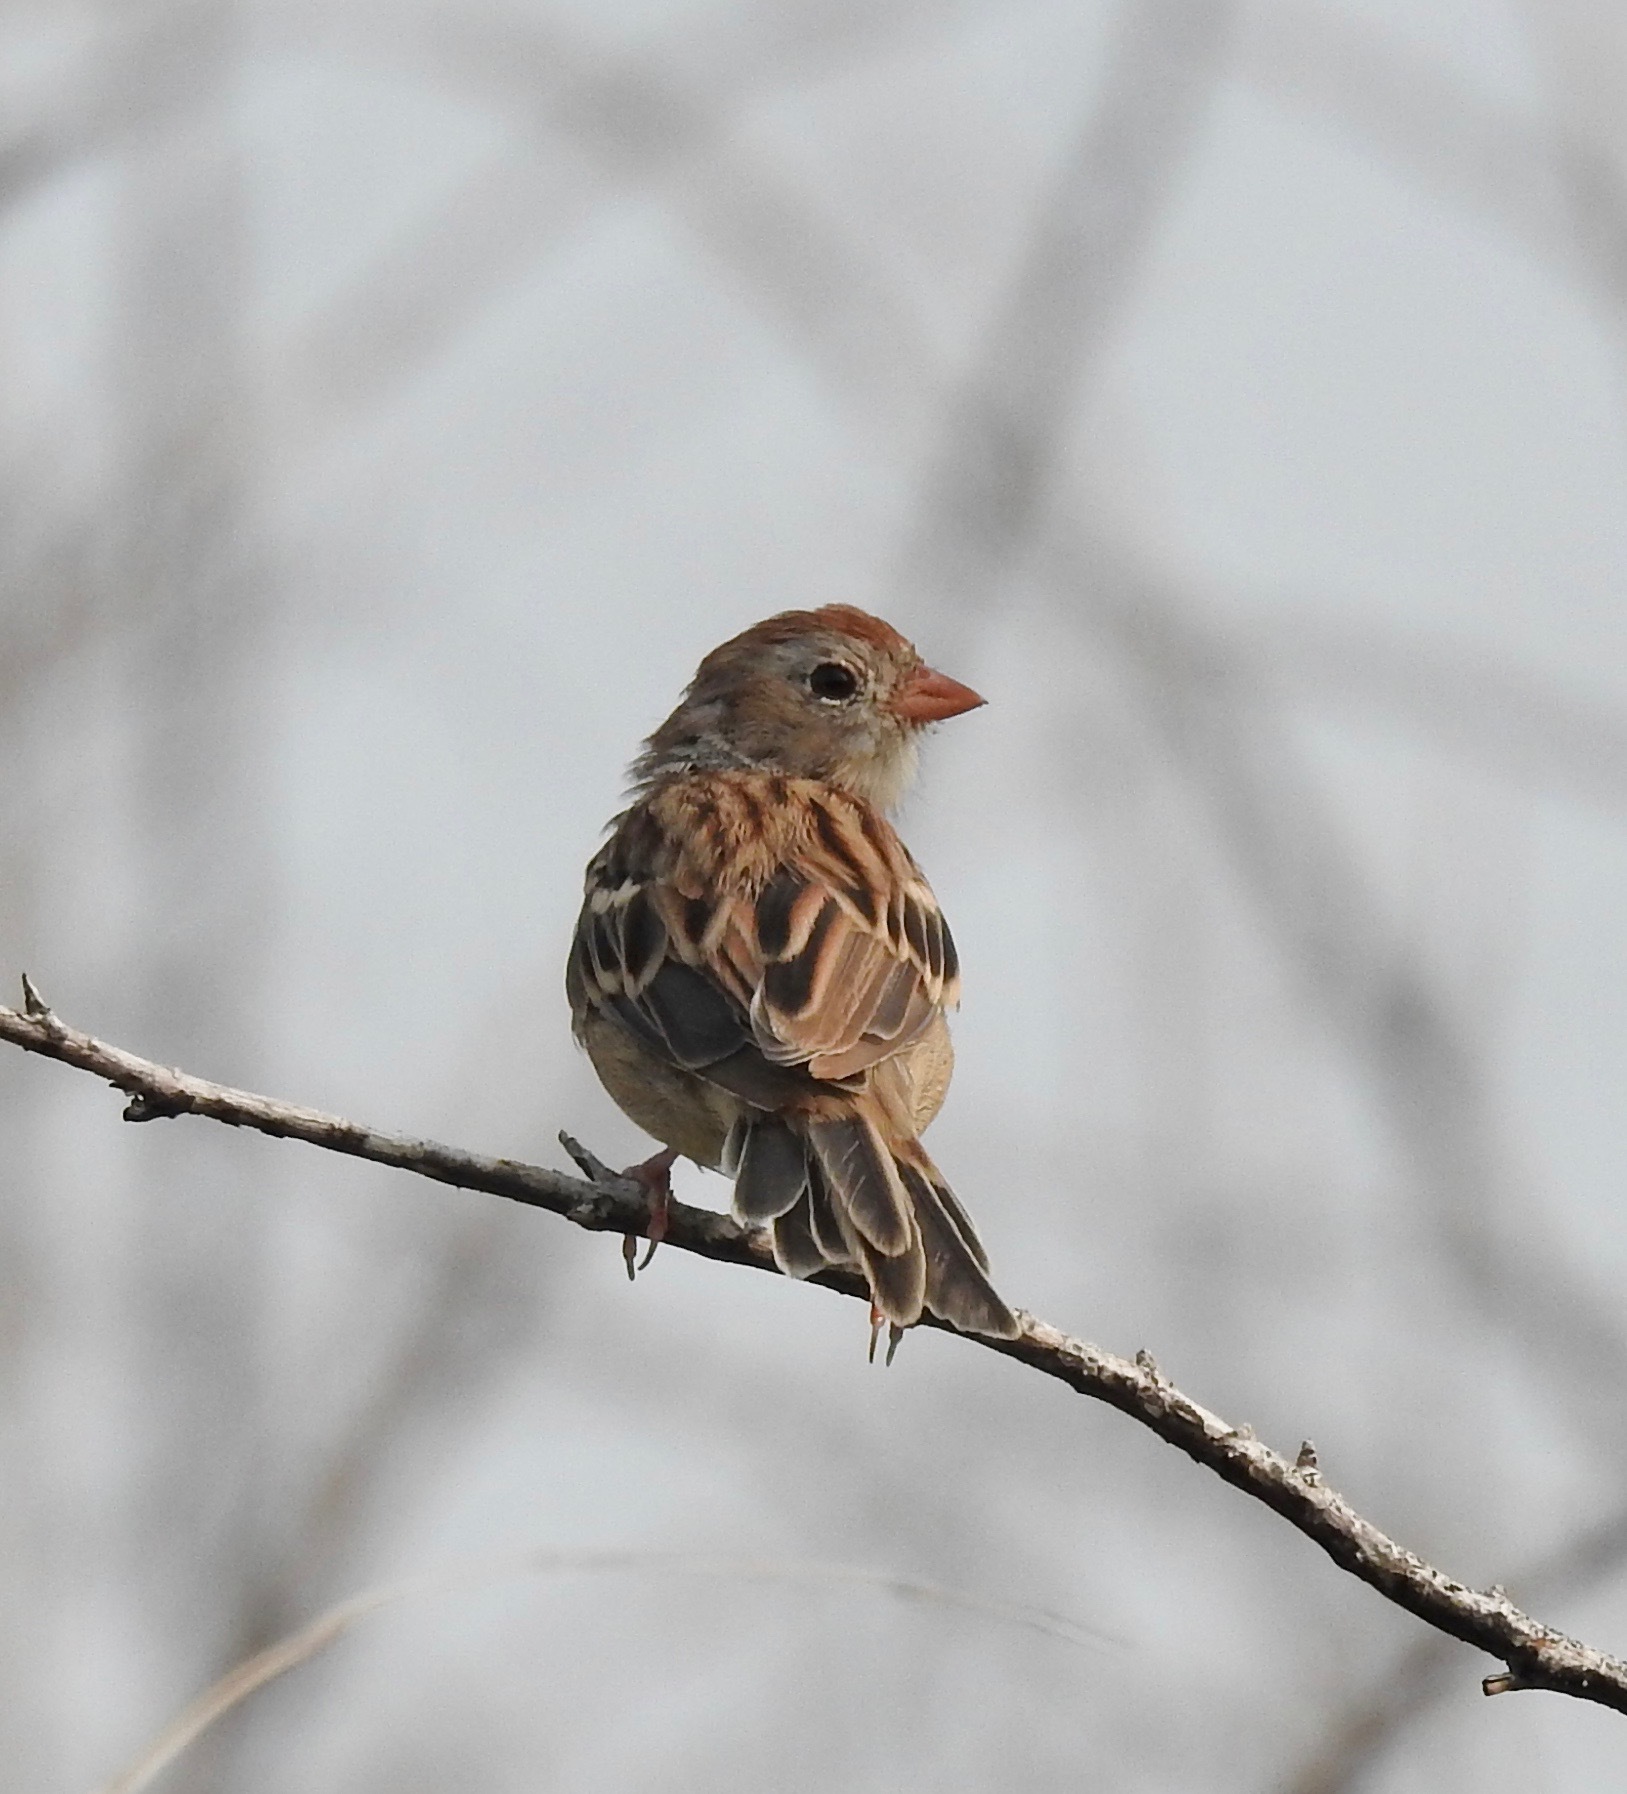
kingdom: Animalia
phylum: Chordata
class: Aves
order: Passeriformes
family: Passerellidae
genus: Spizella
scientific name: Spizella pusilla
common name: Field sparrow
